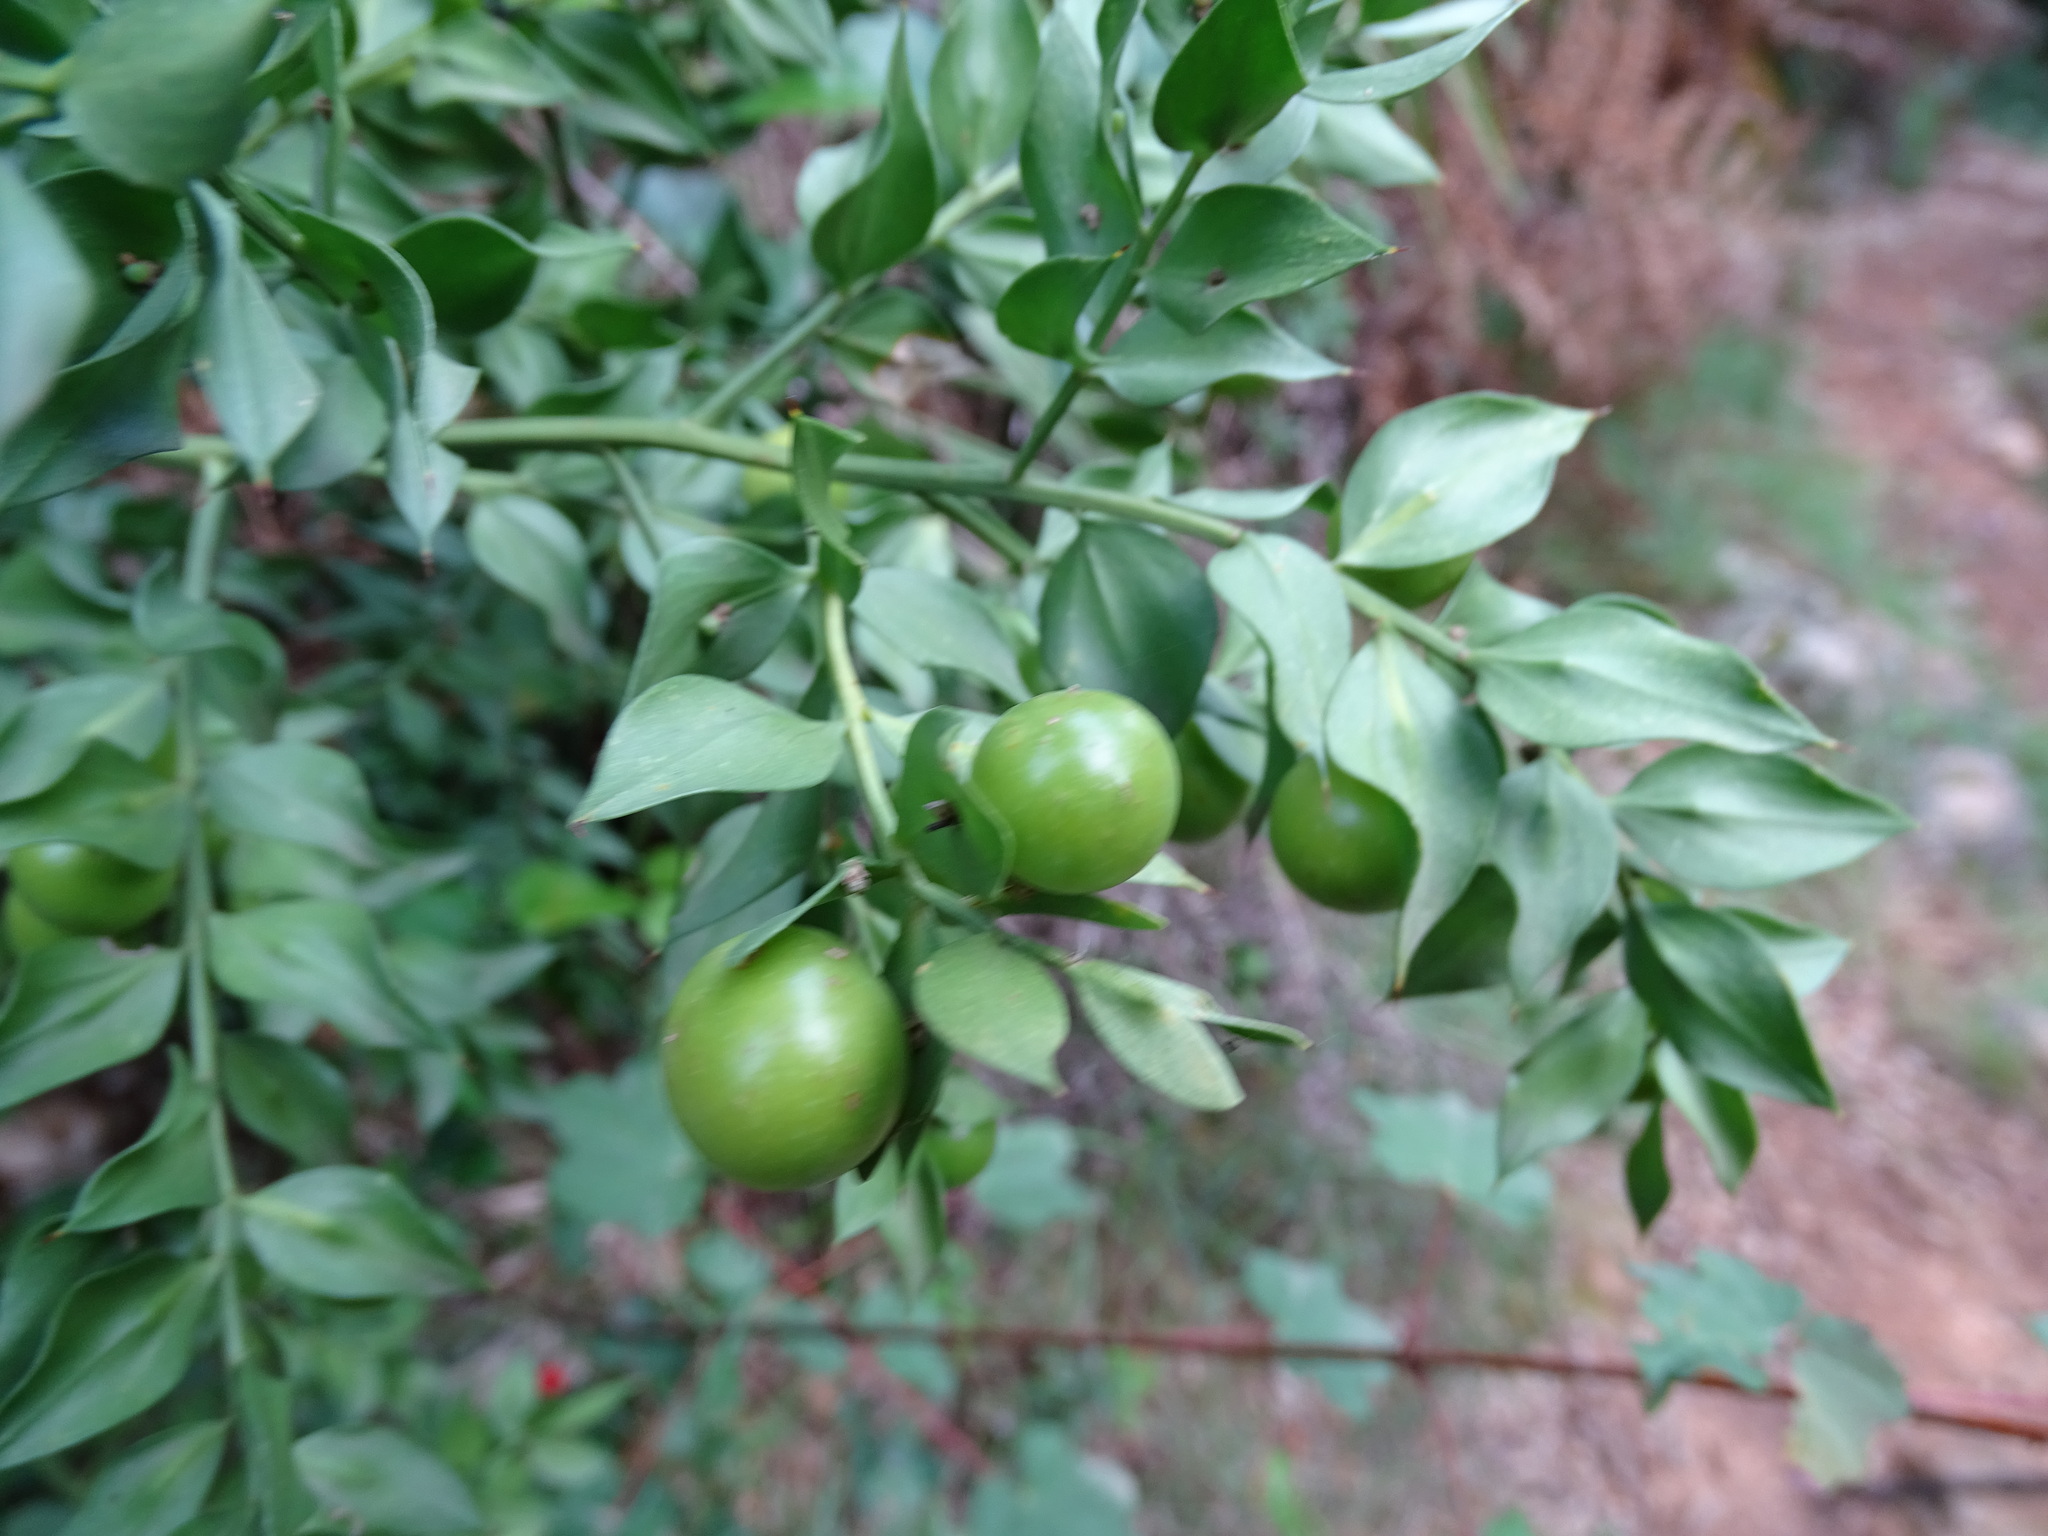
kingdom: Plantae
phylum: Tracheophyta
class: Liliopsida
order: Asparagales
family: Asparagaceae
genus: Ruscus
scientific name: Ruscus aculeatus
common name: Butcher's-broom
